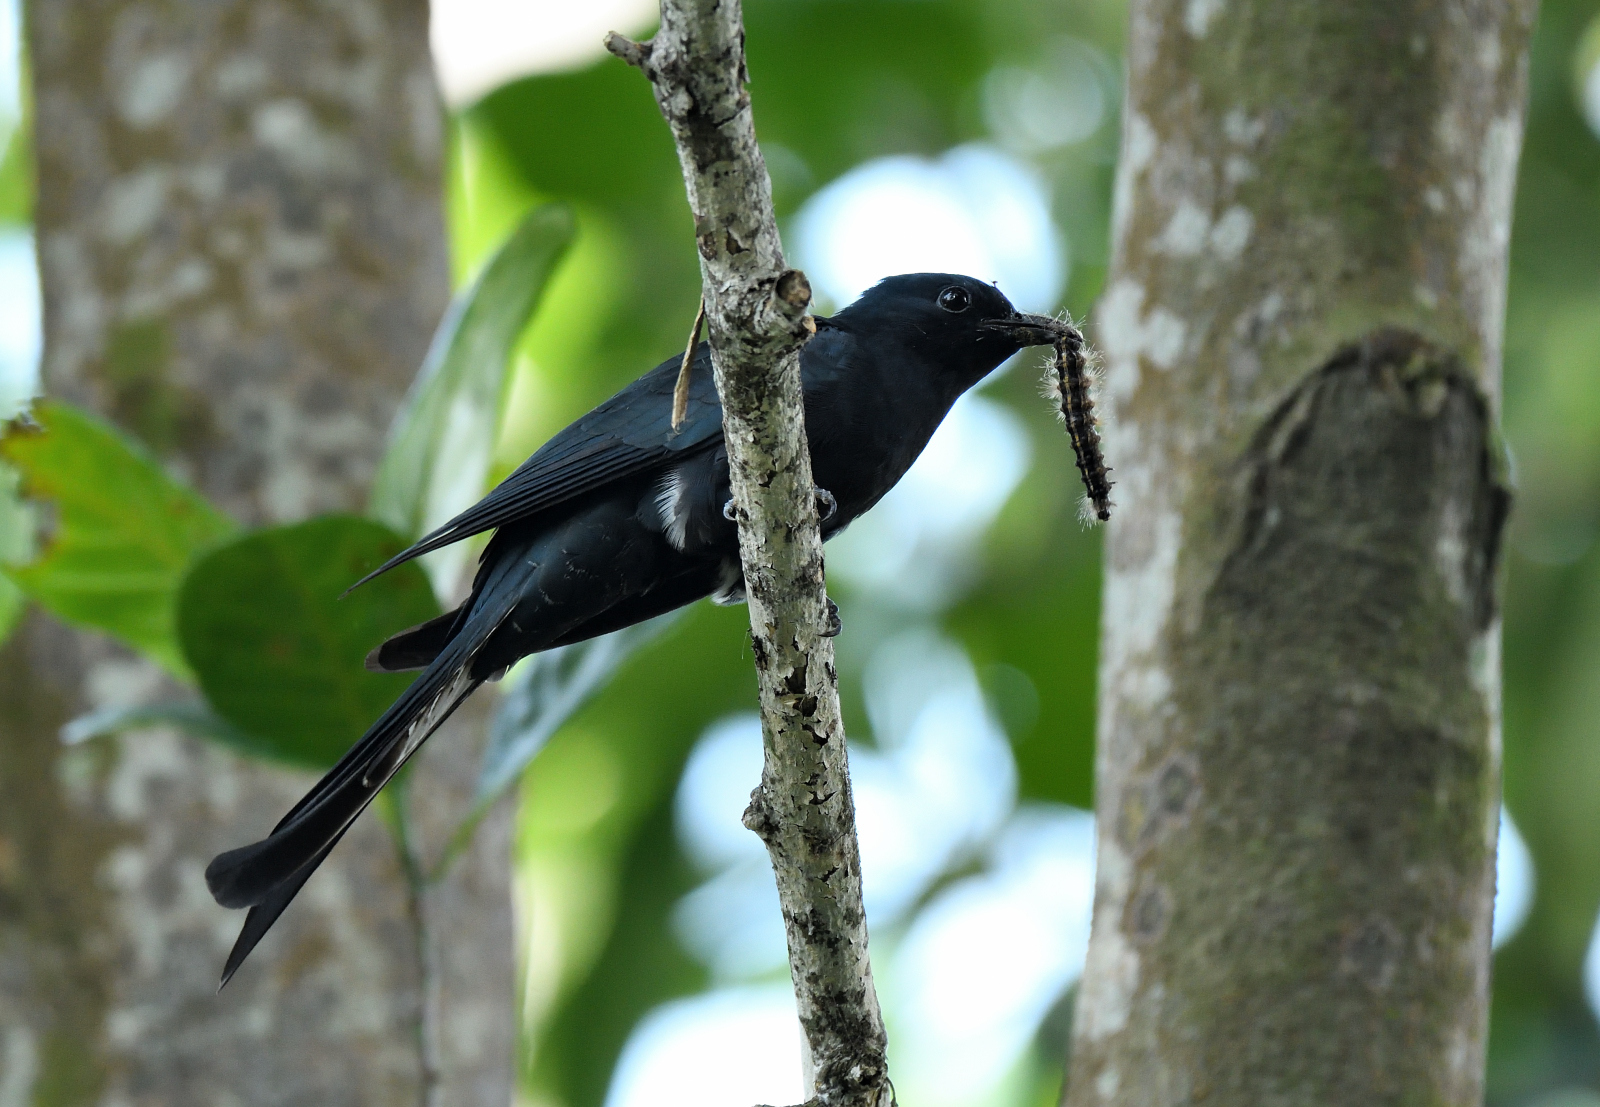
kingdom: Animalia
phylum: Chordata
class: Aves
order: Cuculiformes
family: Cuculidae
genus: Surniculus
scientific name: Surniculus lugubris
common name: Square-tailed drongo-cuckoo
